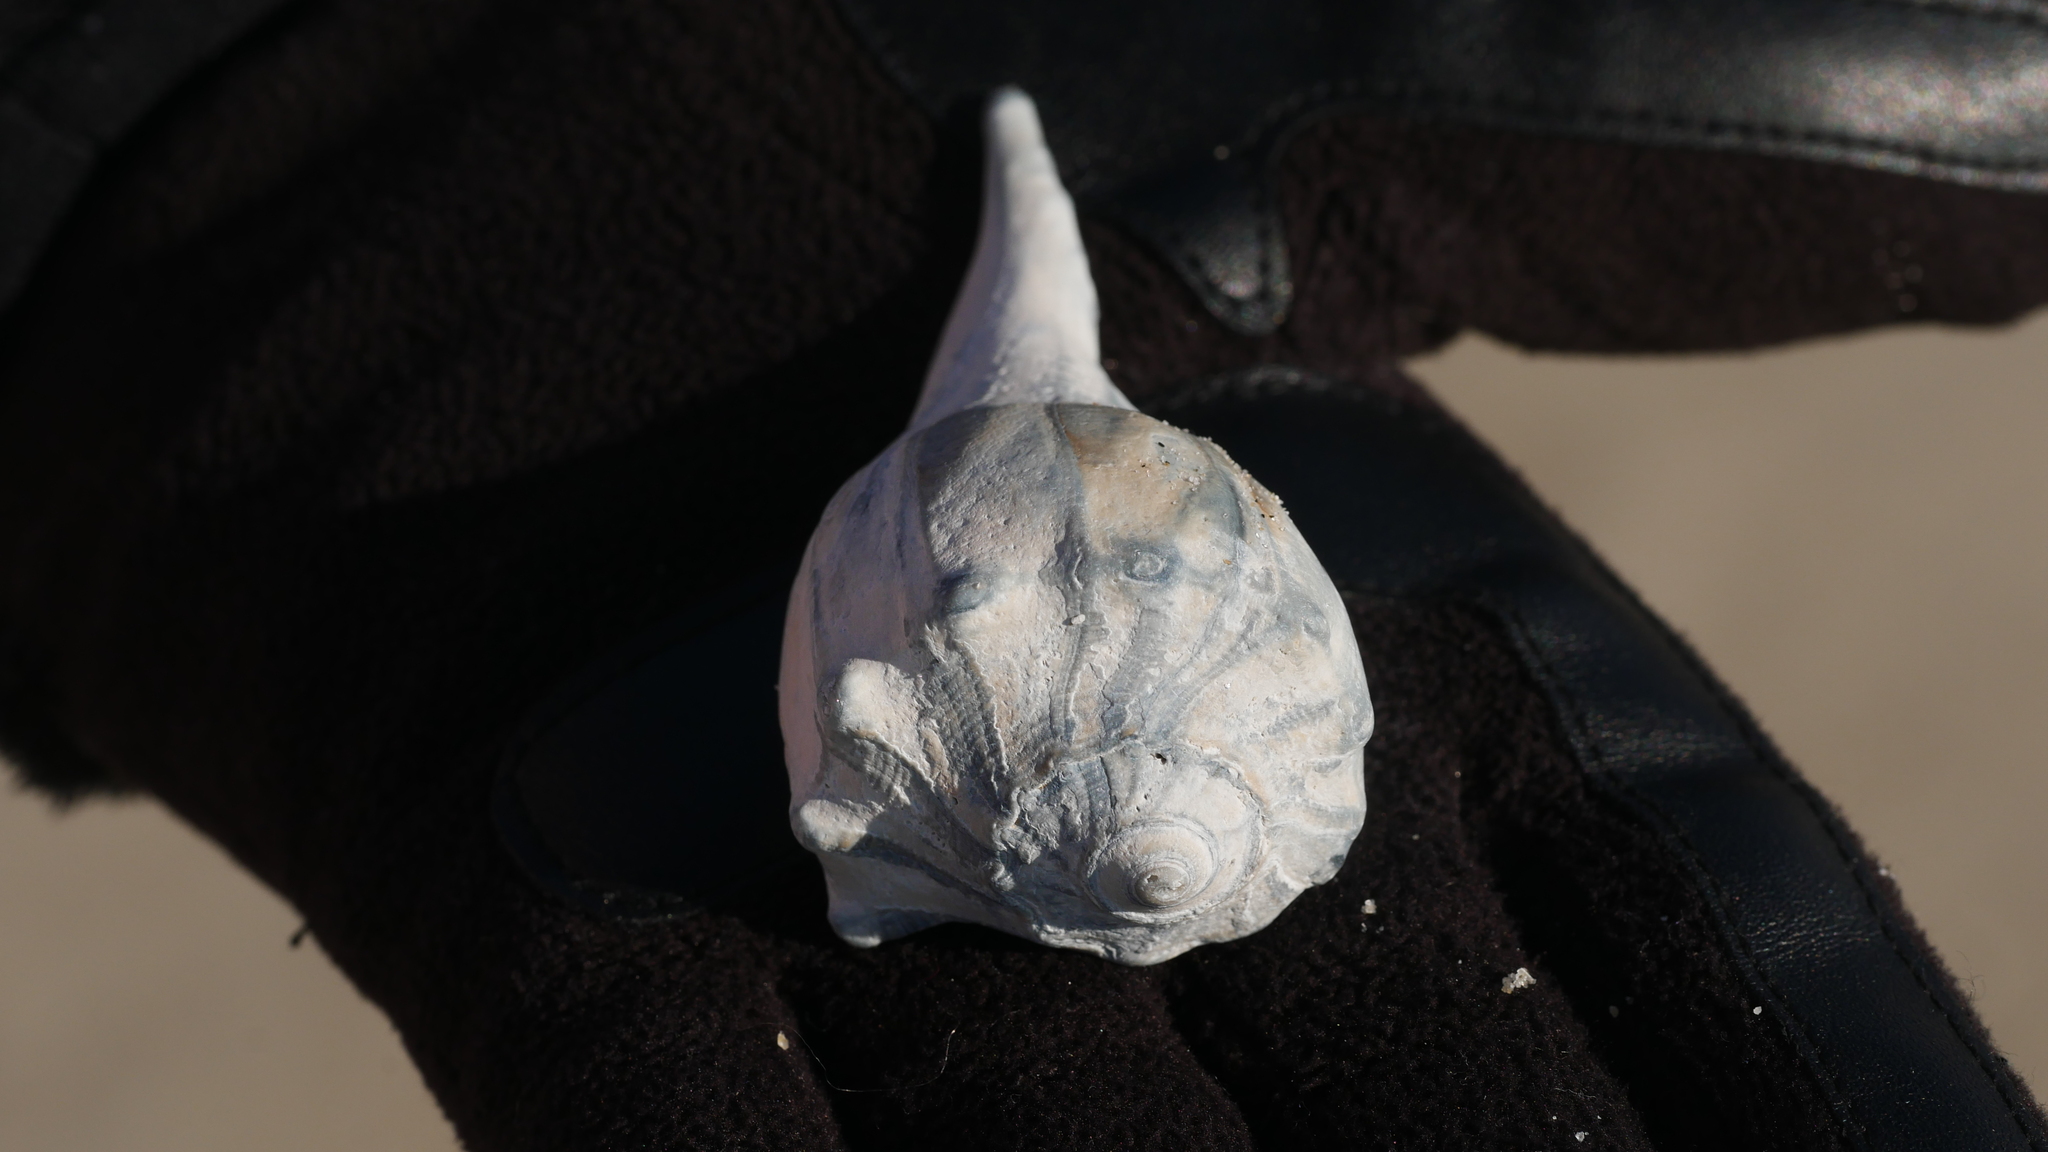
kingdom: Animalia
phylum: Mollusca
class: Gastropoda
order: Neogastropoda
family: Busyconidae
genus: Busycon
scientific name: Busycon carica
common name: Knobbed whelk
